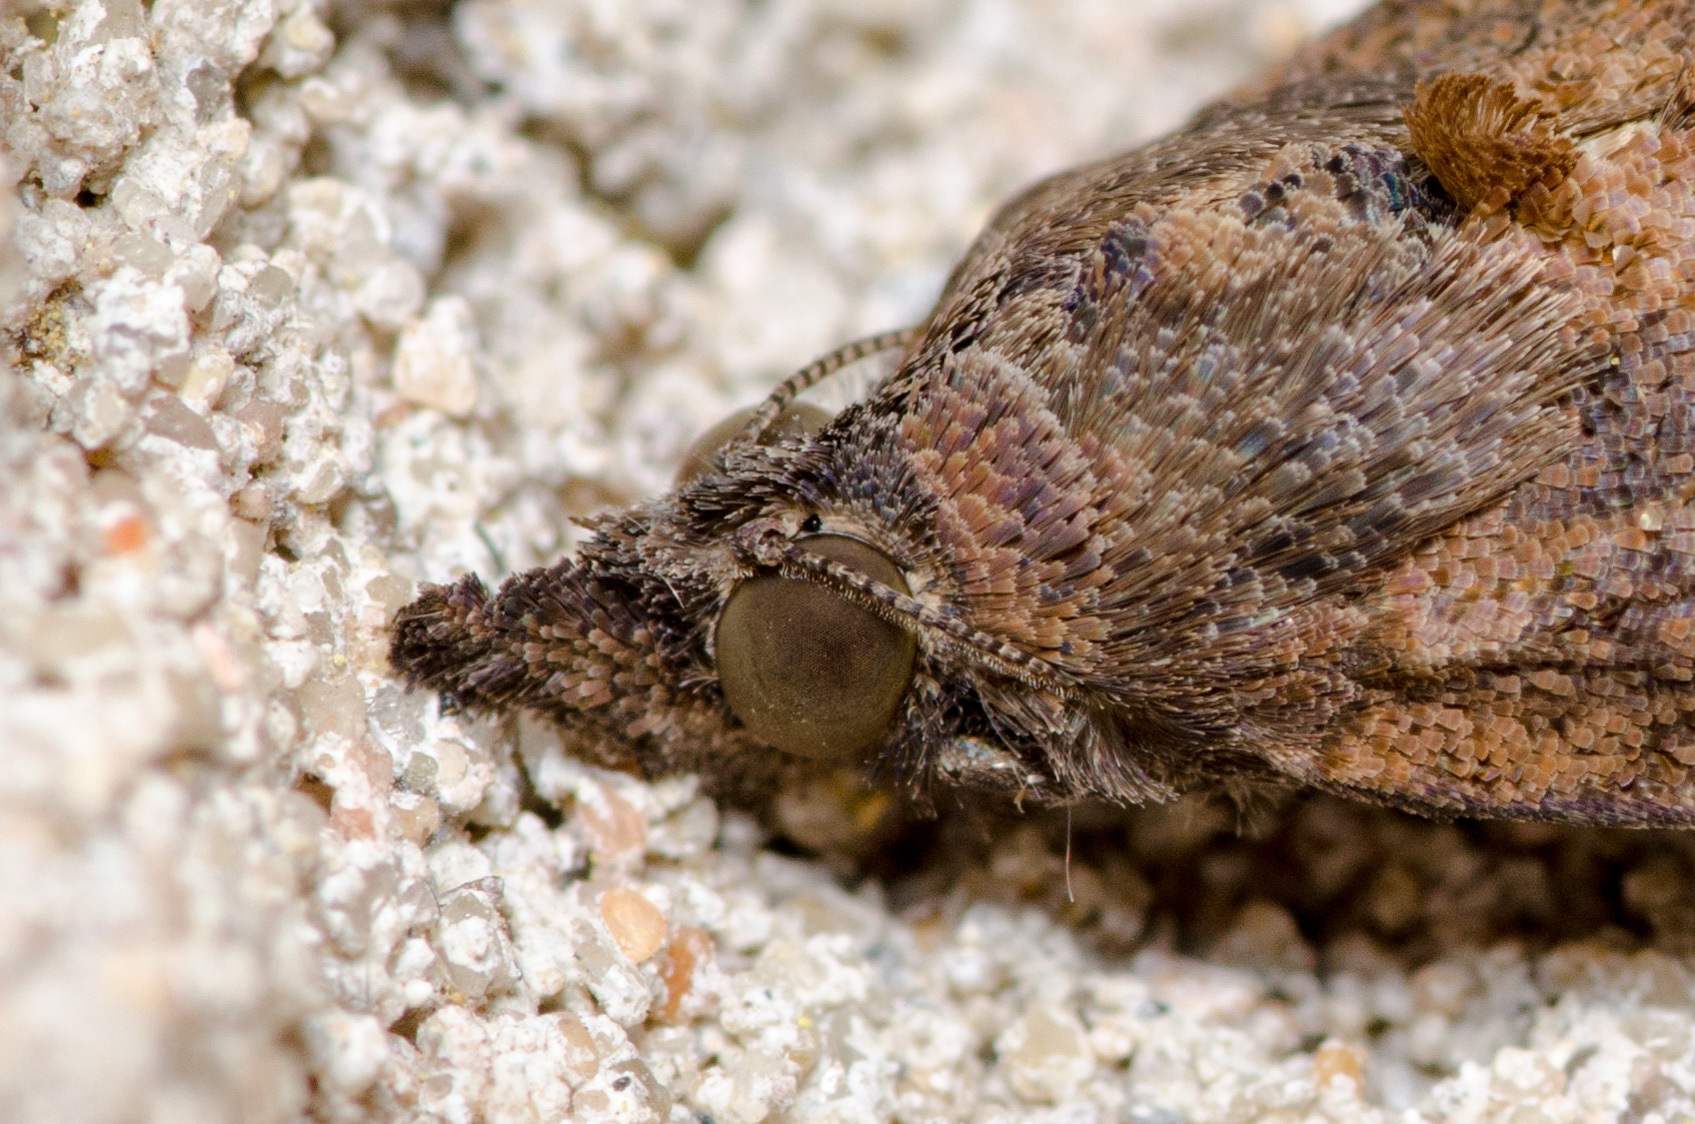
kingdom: Animalia
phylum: Arthropoda
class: Insecta
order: Lepidoptera
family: Erebidae
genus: Hypena
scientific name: Hypena scabra
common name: Green cloverworm
